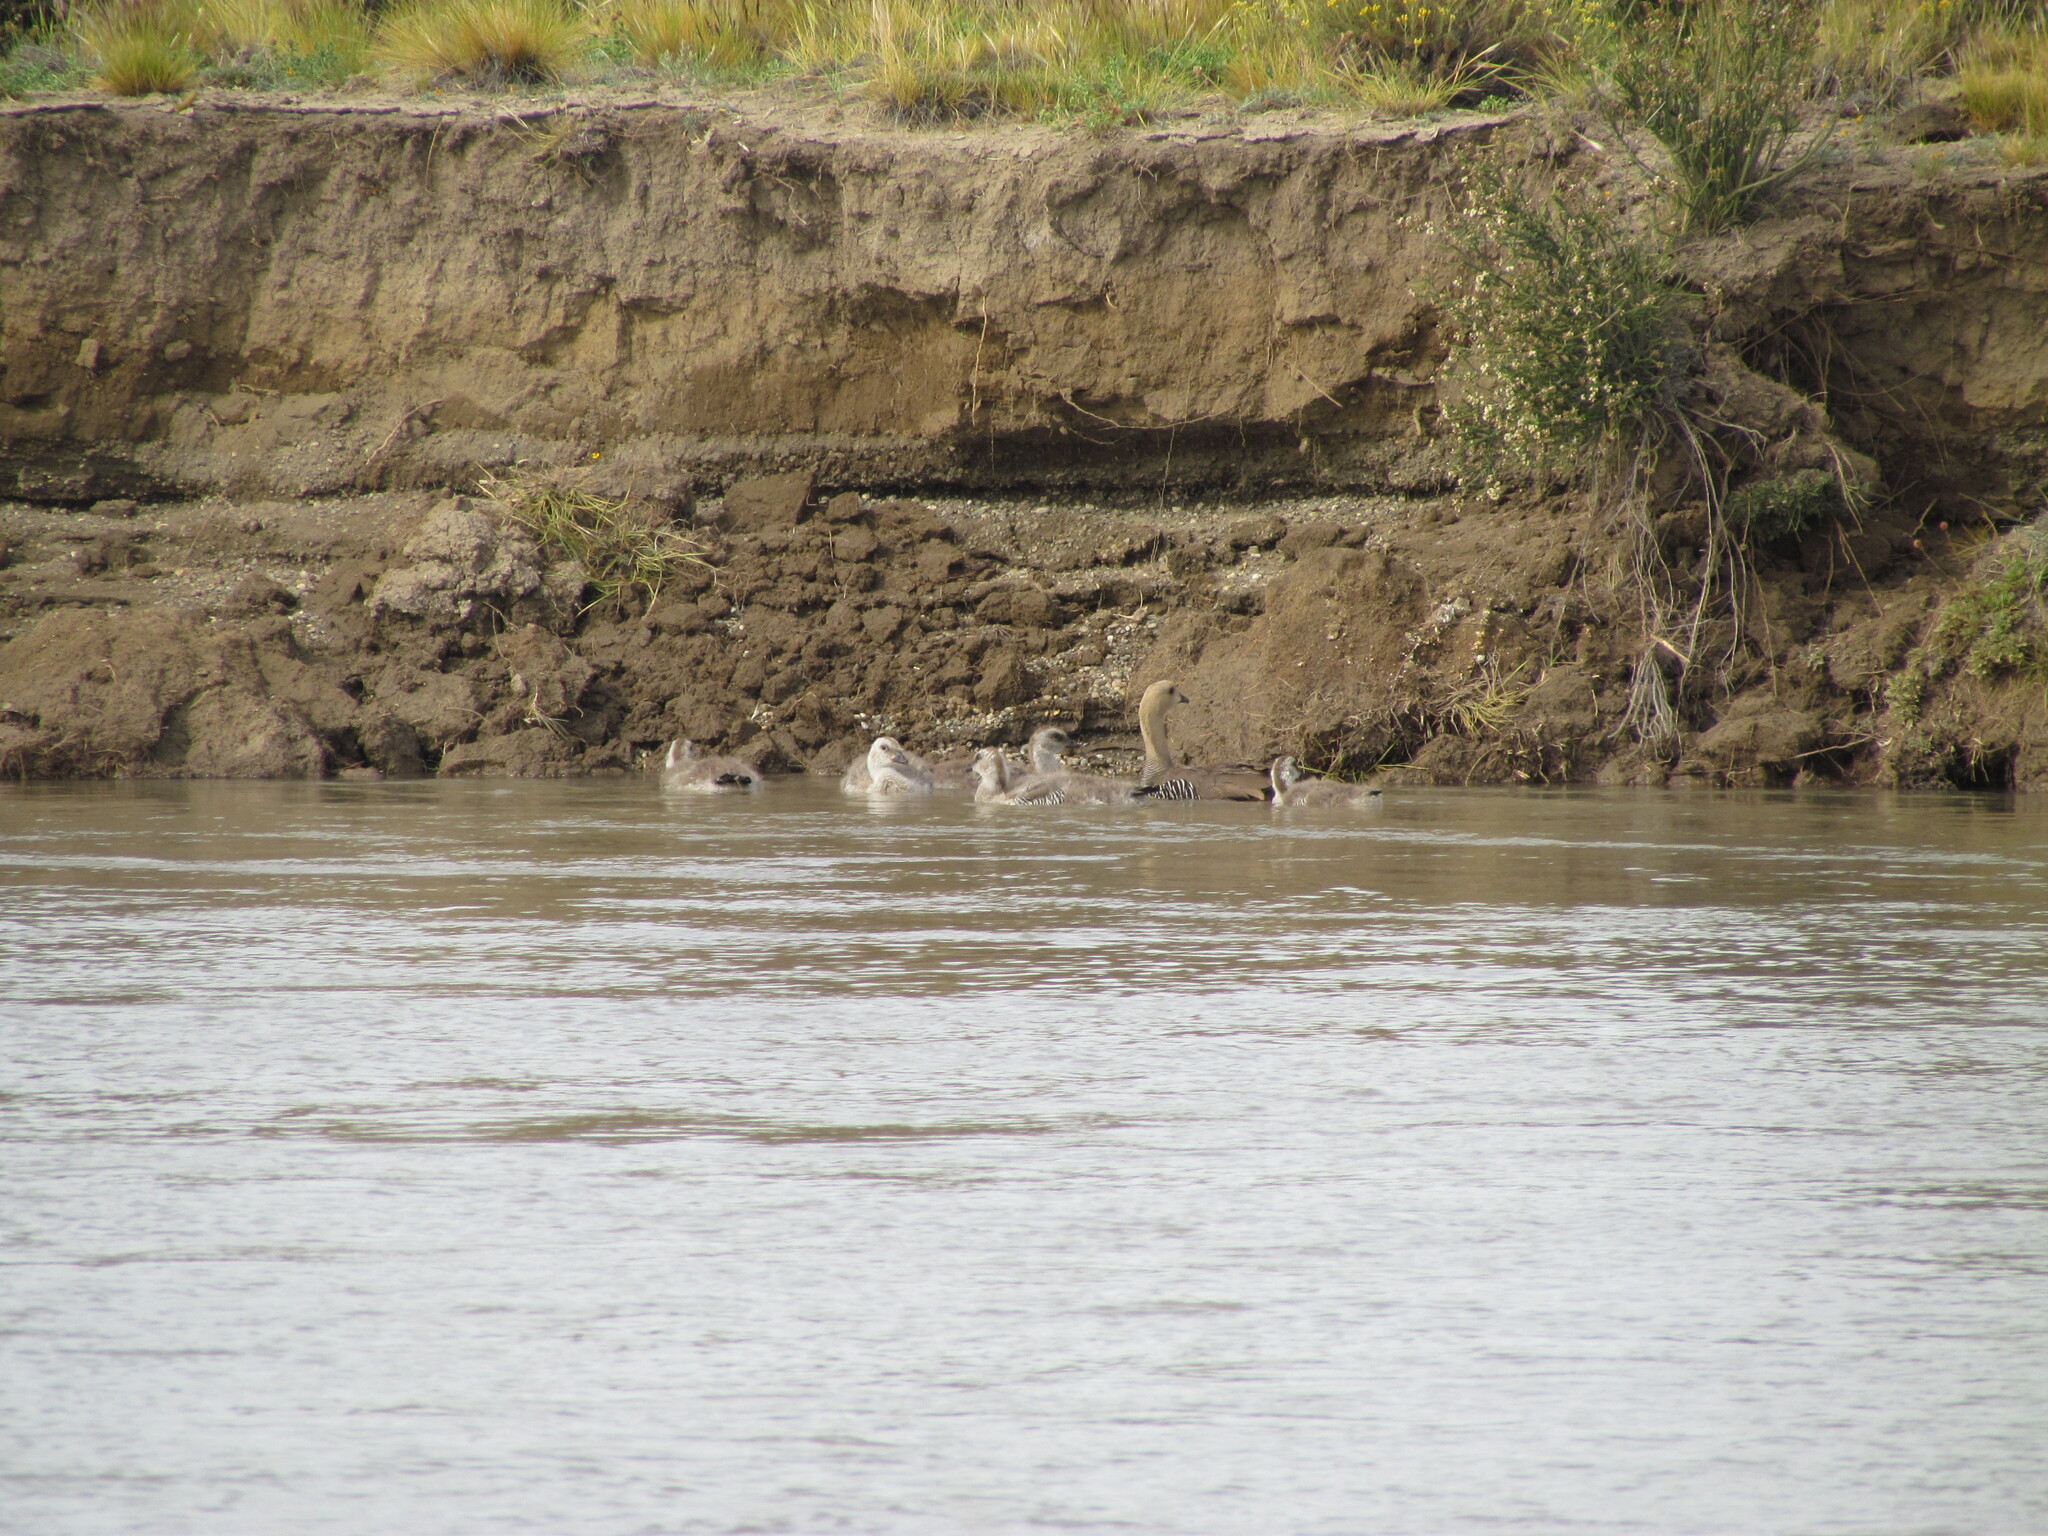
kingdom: Animalia
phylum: Chordata
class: Aves
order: Anseriformes
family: Anatidae
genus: Chloephaga
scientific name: Chloephaga picta
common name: Upland goose
